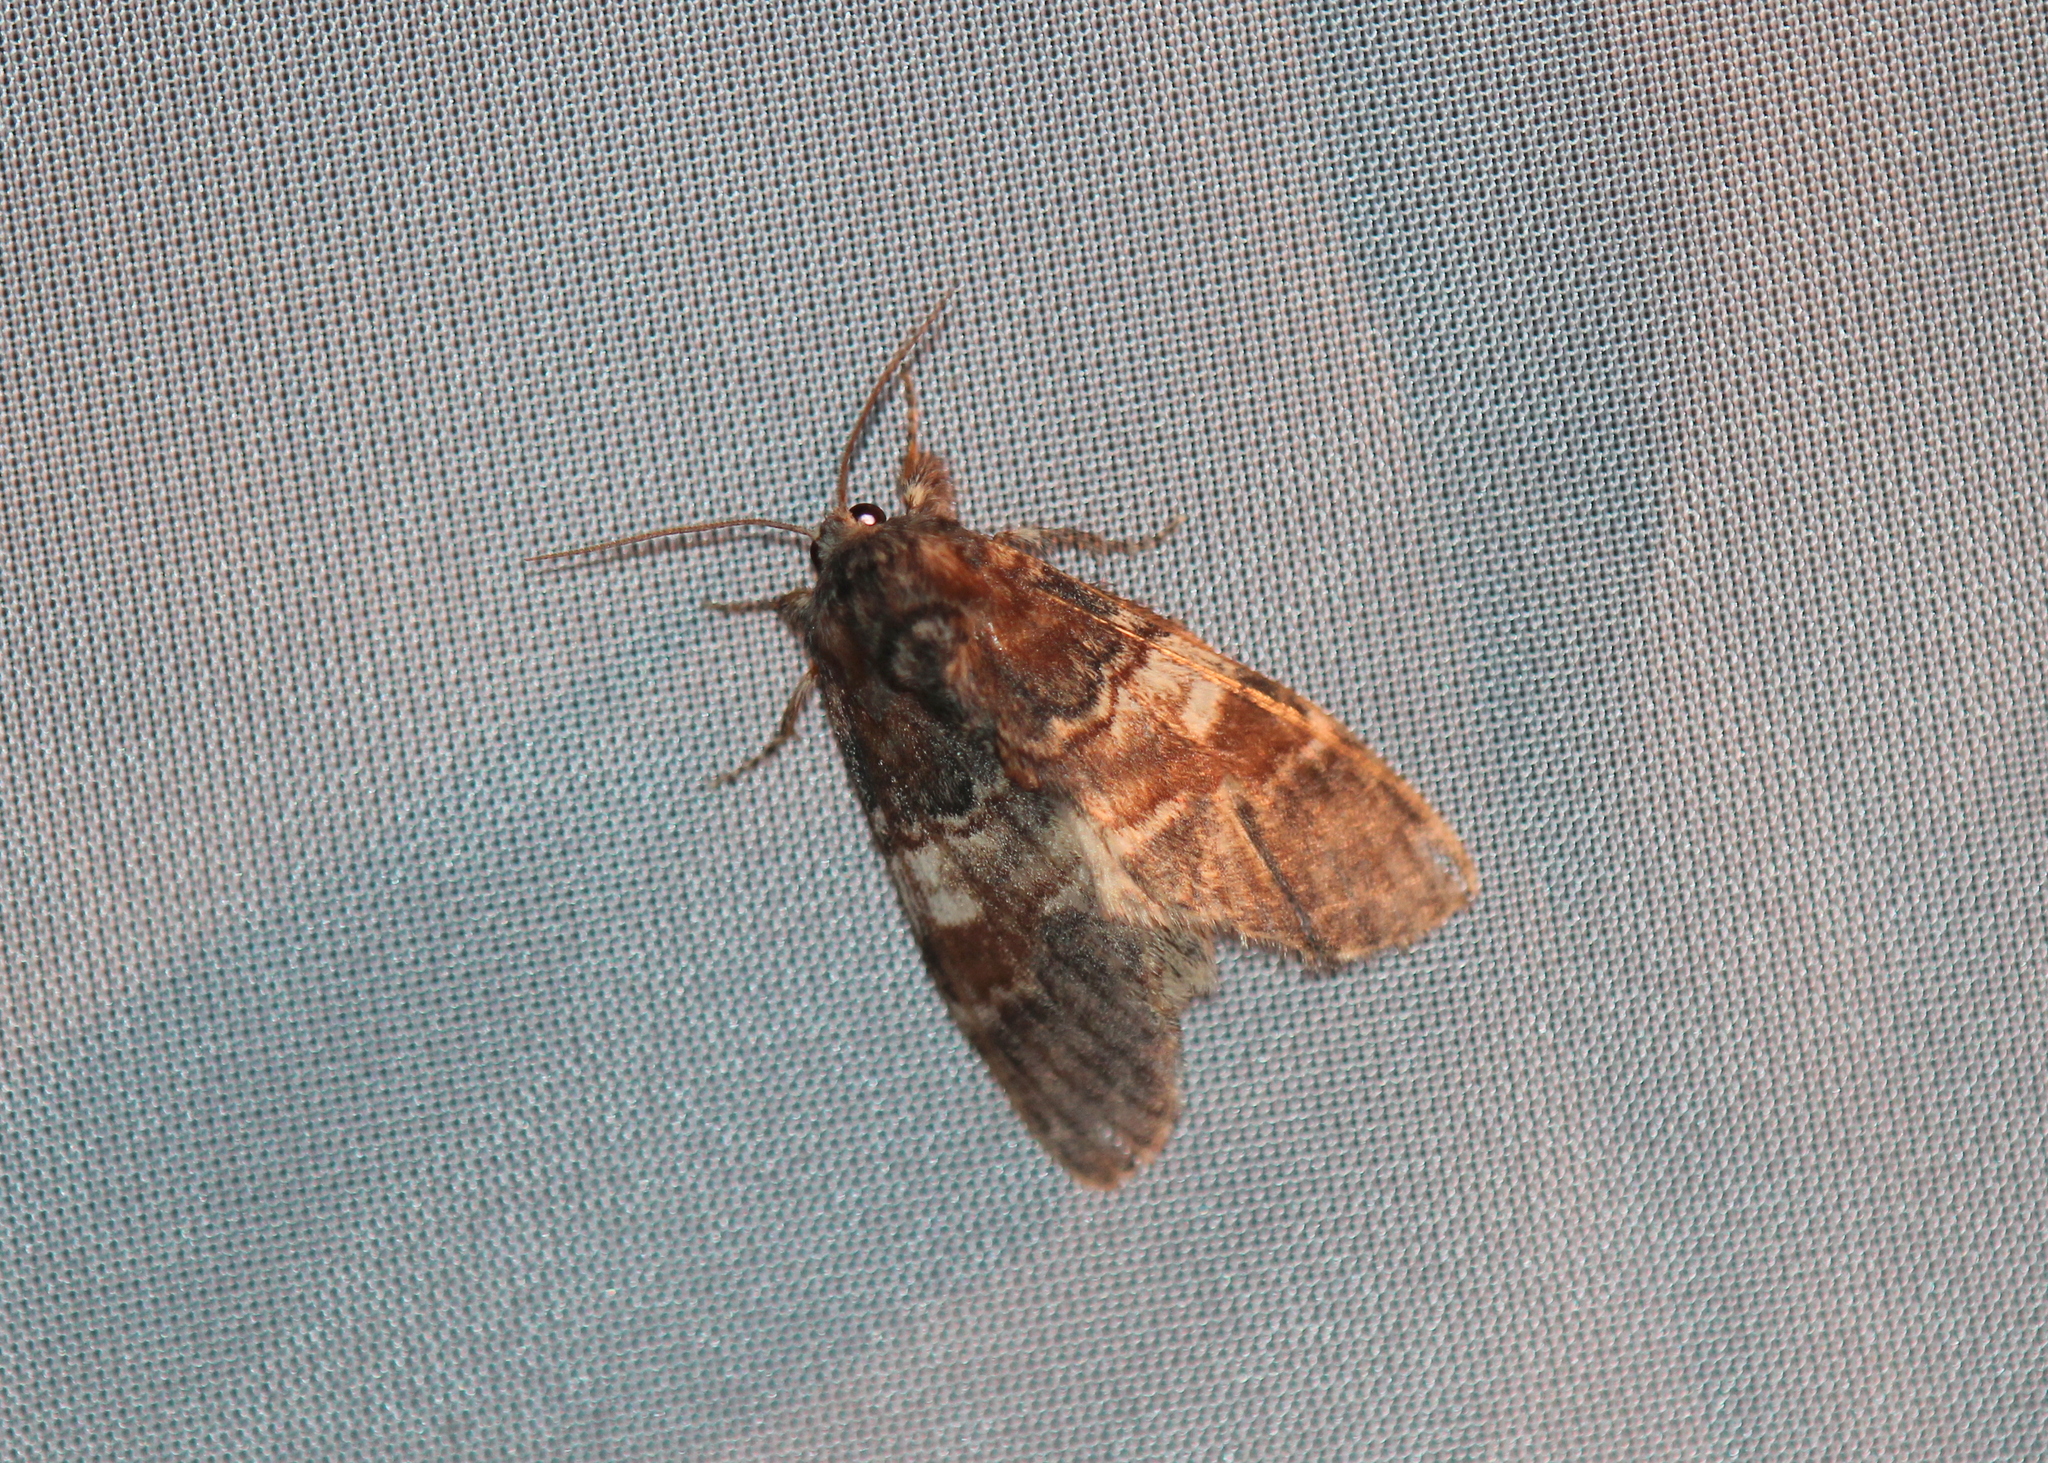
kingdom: Animalia
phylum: Arthropoda
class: Insecta
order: Lepidoptera
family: Notodontidae
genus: Peridea
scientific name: Peridea ferruginea
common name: Chocolate prominent
